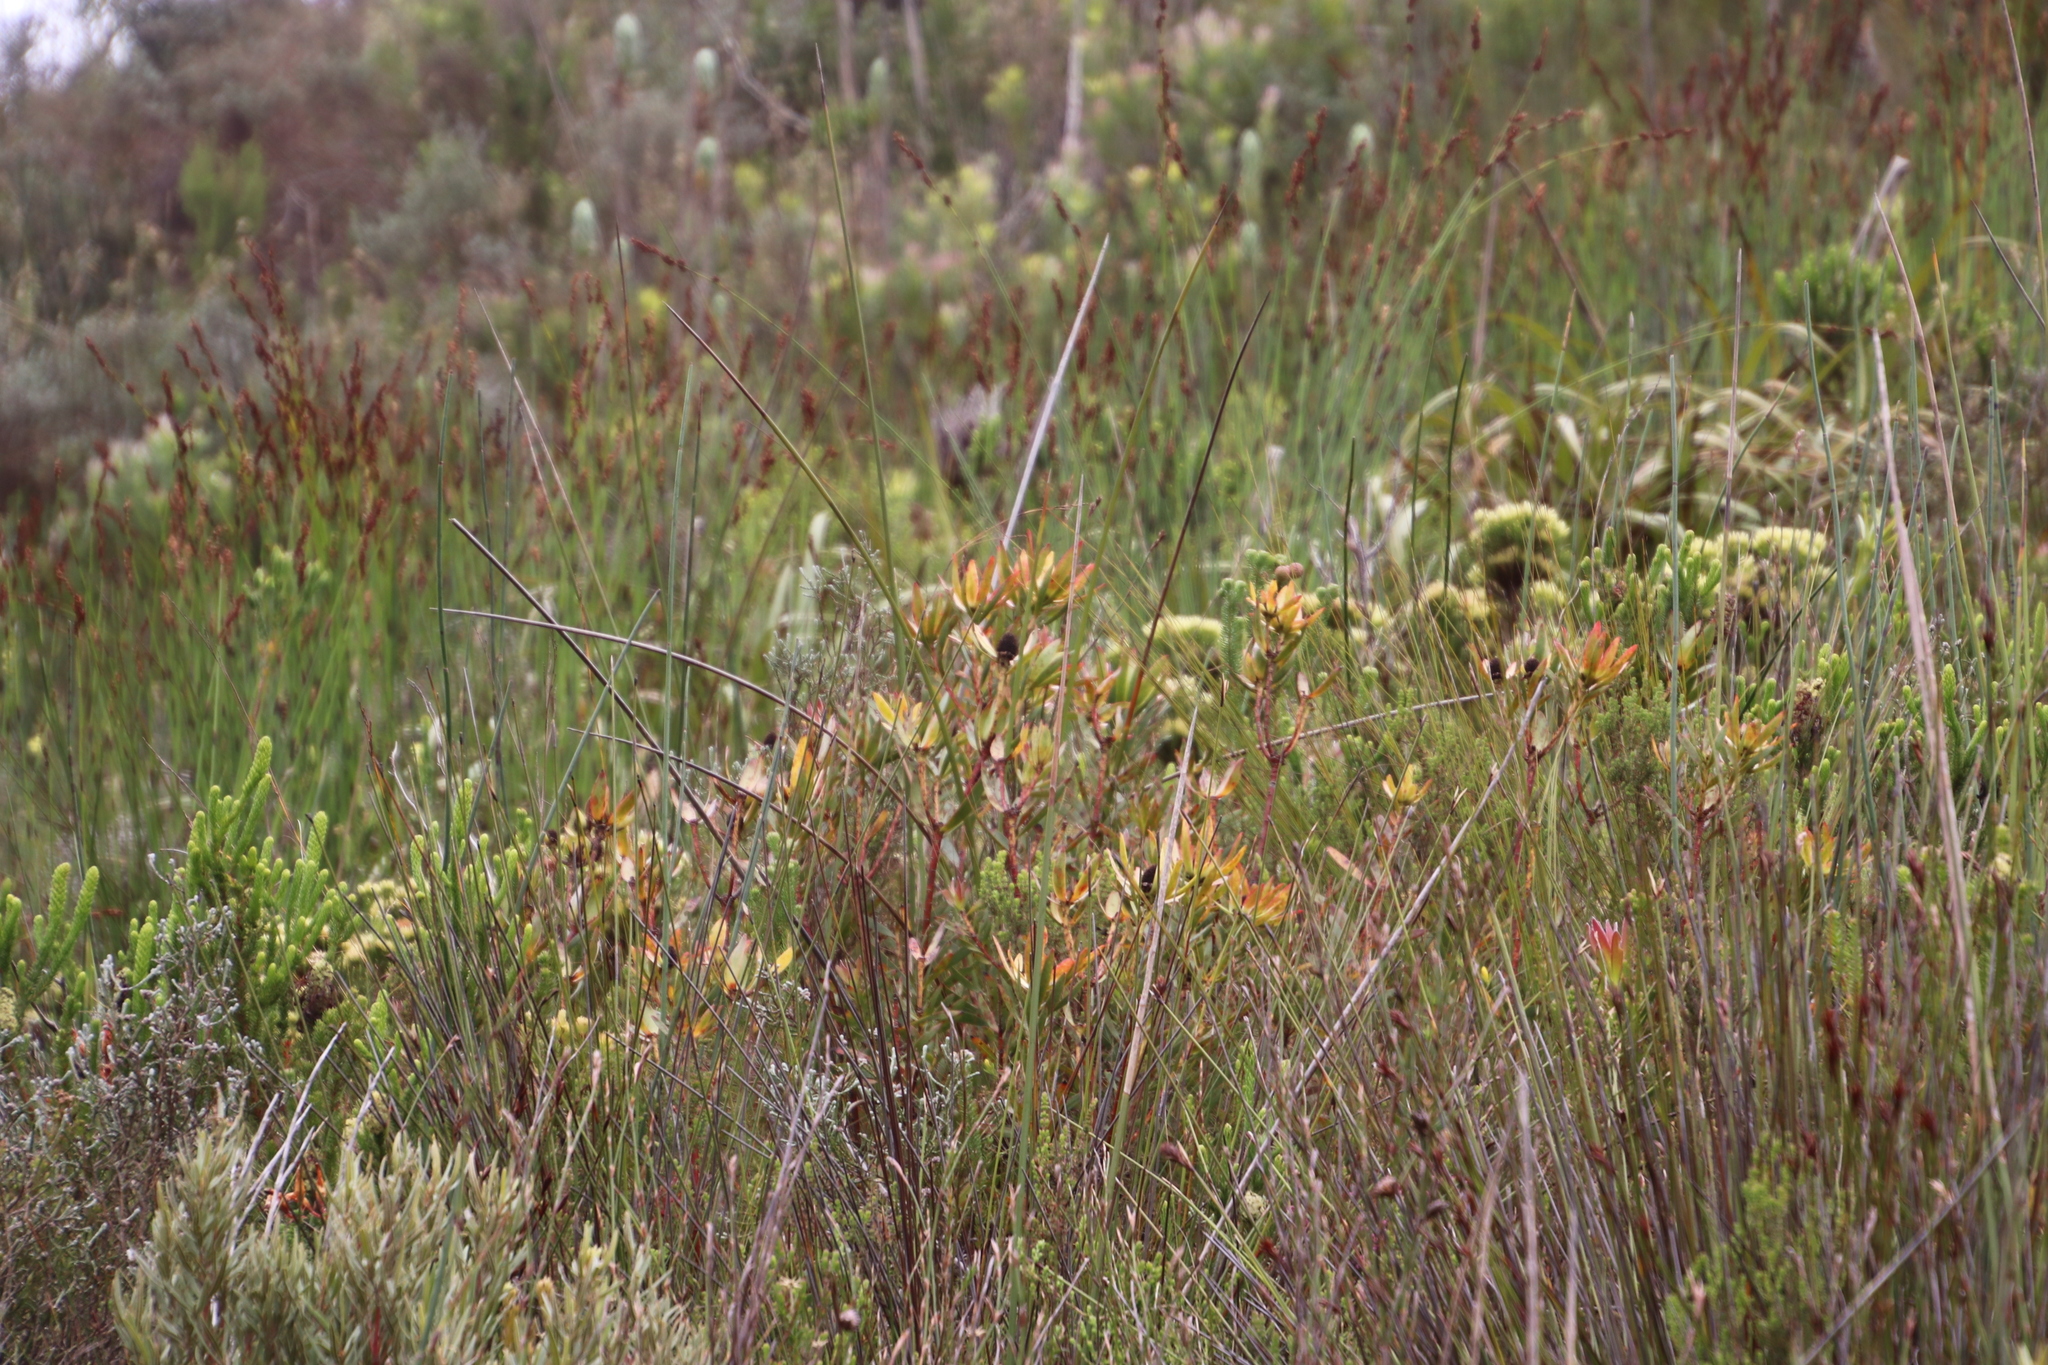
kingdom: Plantae
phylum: Tracheophyta
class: Magnoliopsida
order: Proteales
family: Proteaceae
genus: Leucadendron
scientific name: Leucadendron spissifolium
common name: Spear-leaf conebush
